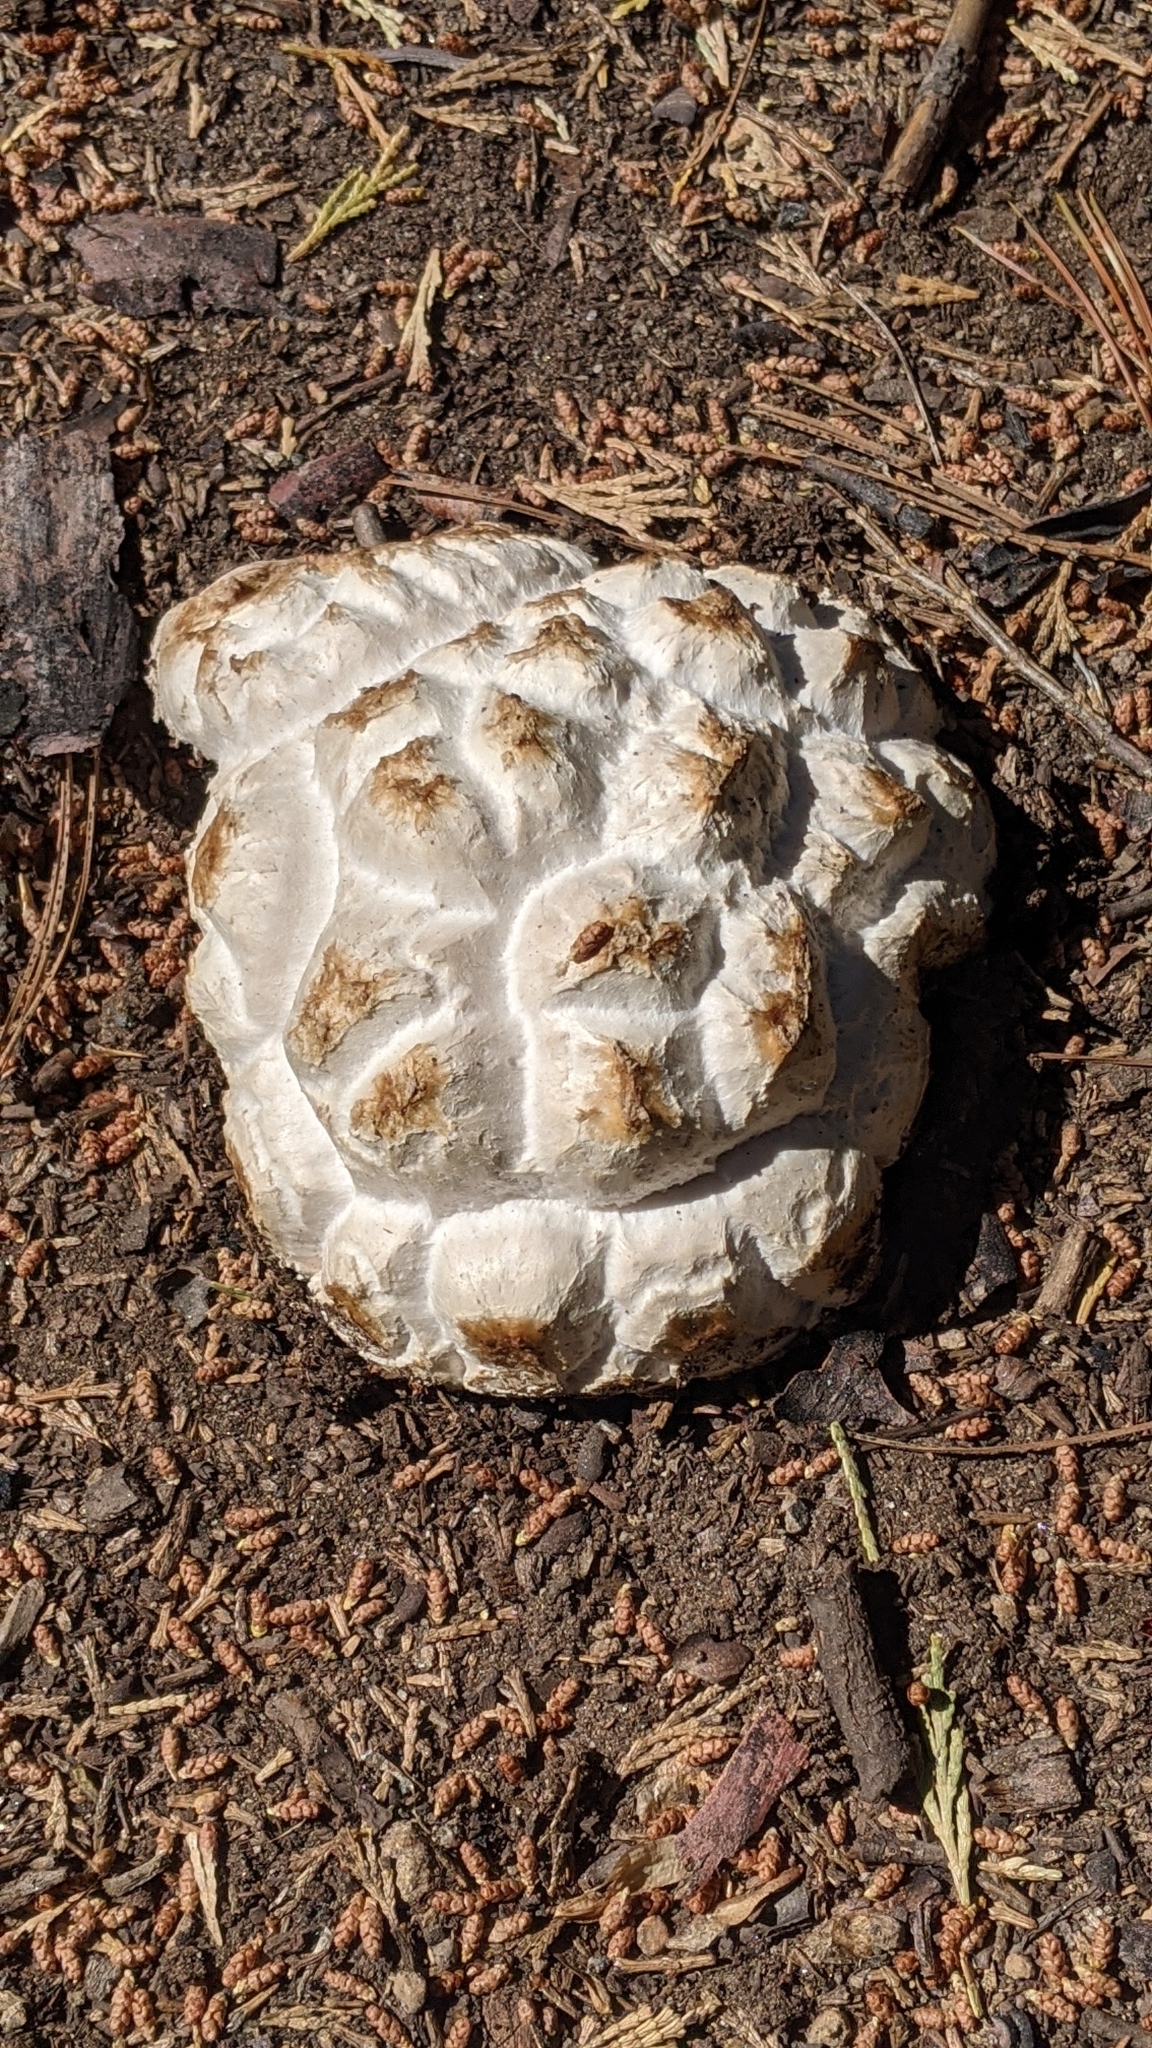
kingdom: Fungi
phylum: Basidiomycota
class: Agaricomycetes
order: Agaricales
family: Lycoperdaceae
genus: Calbovista
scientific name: Calbovista subsculpta
